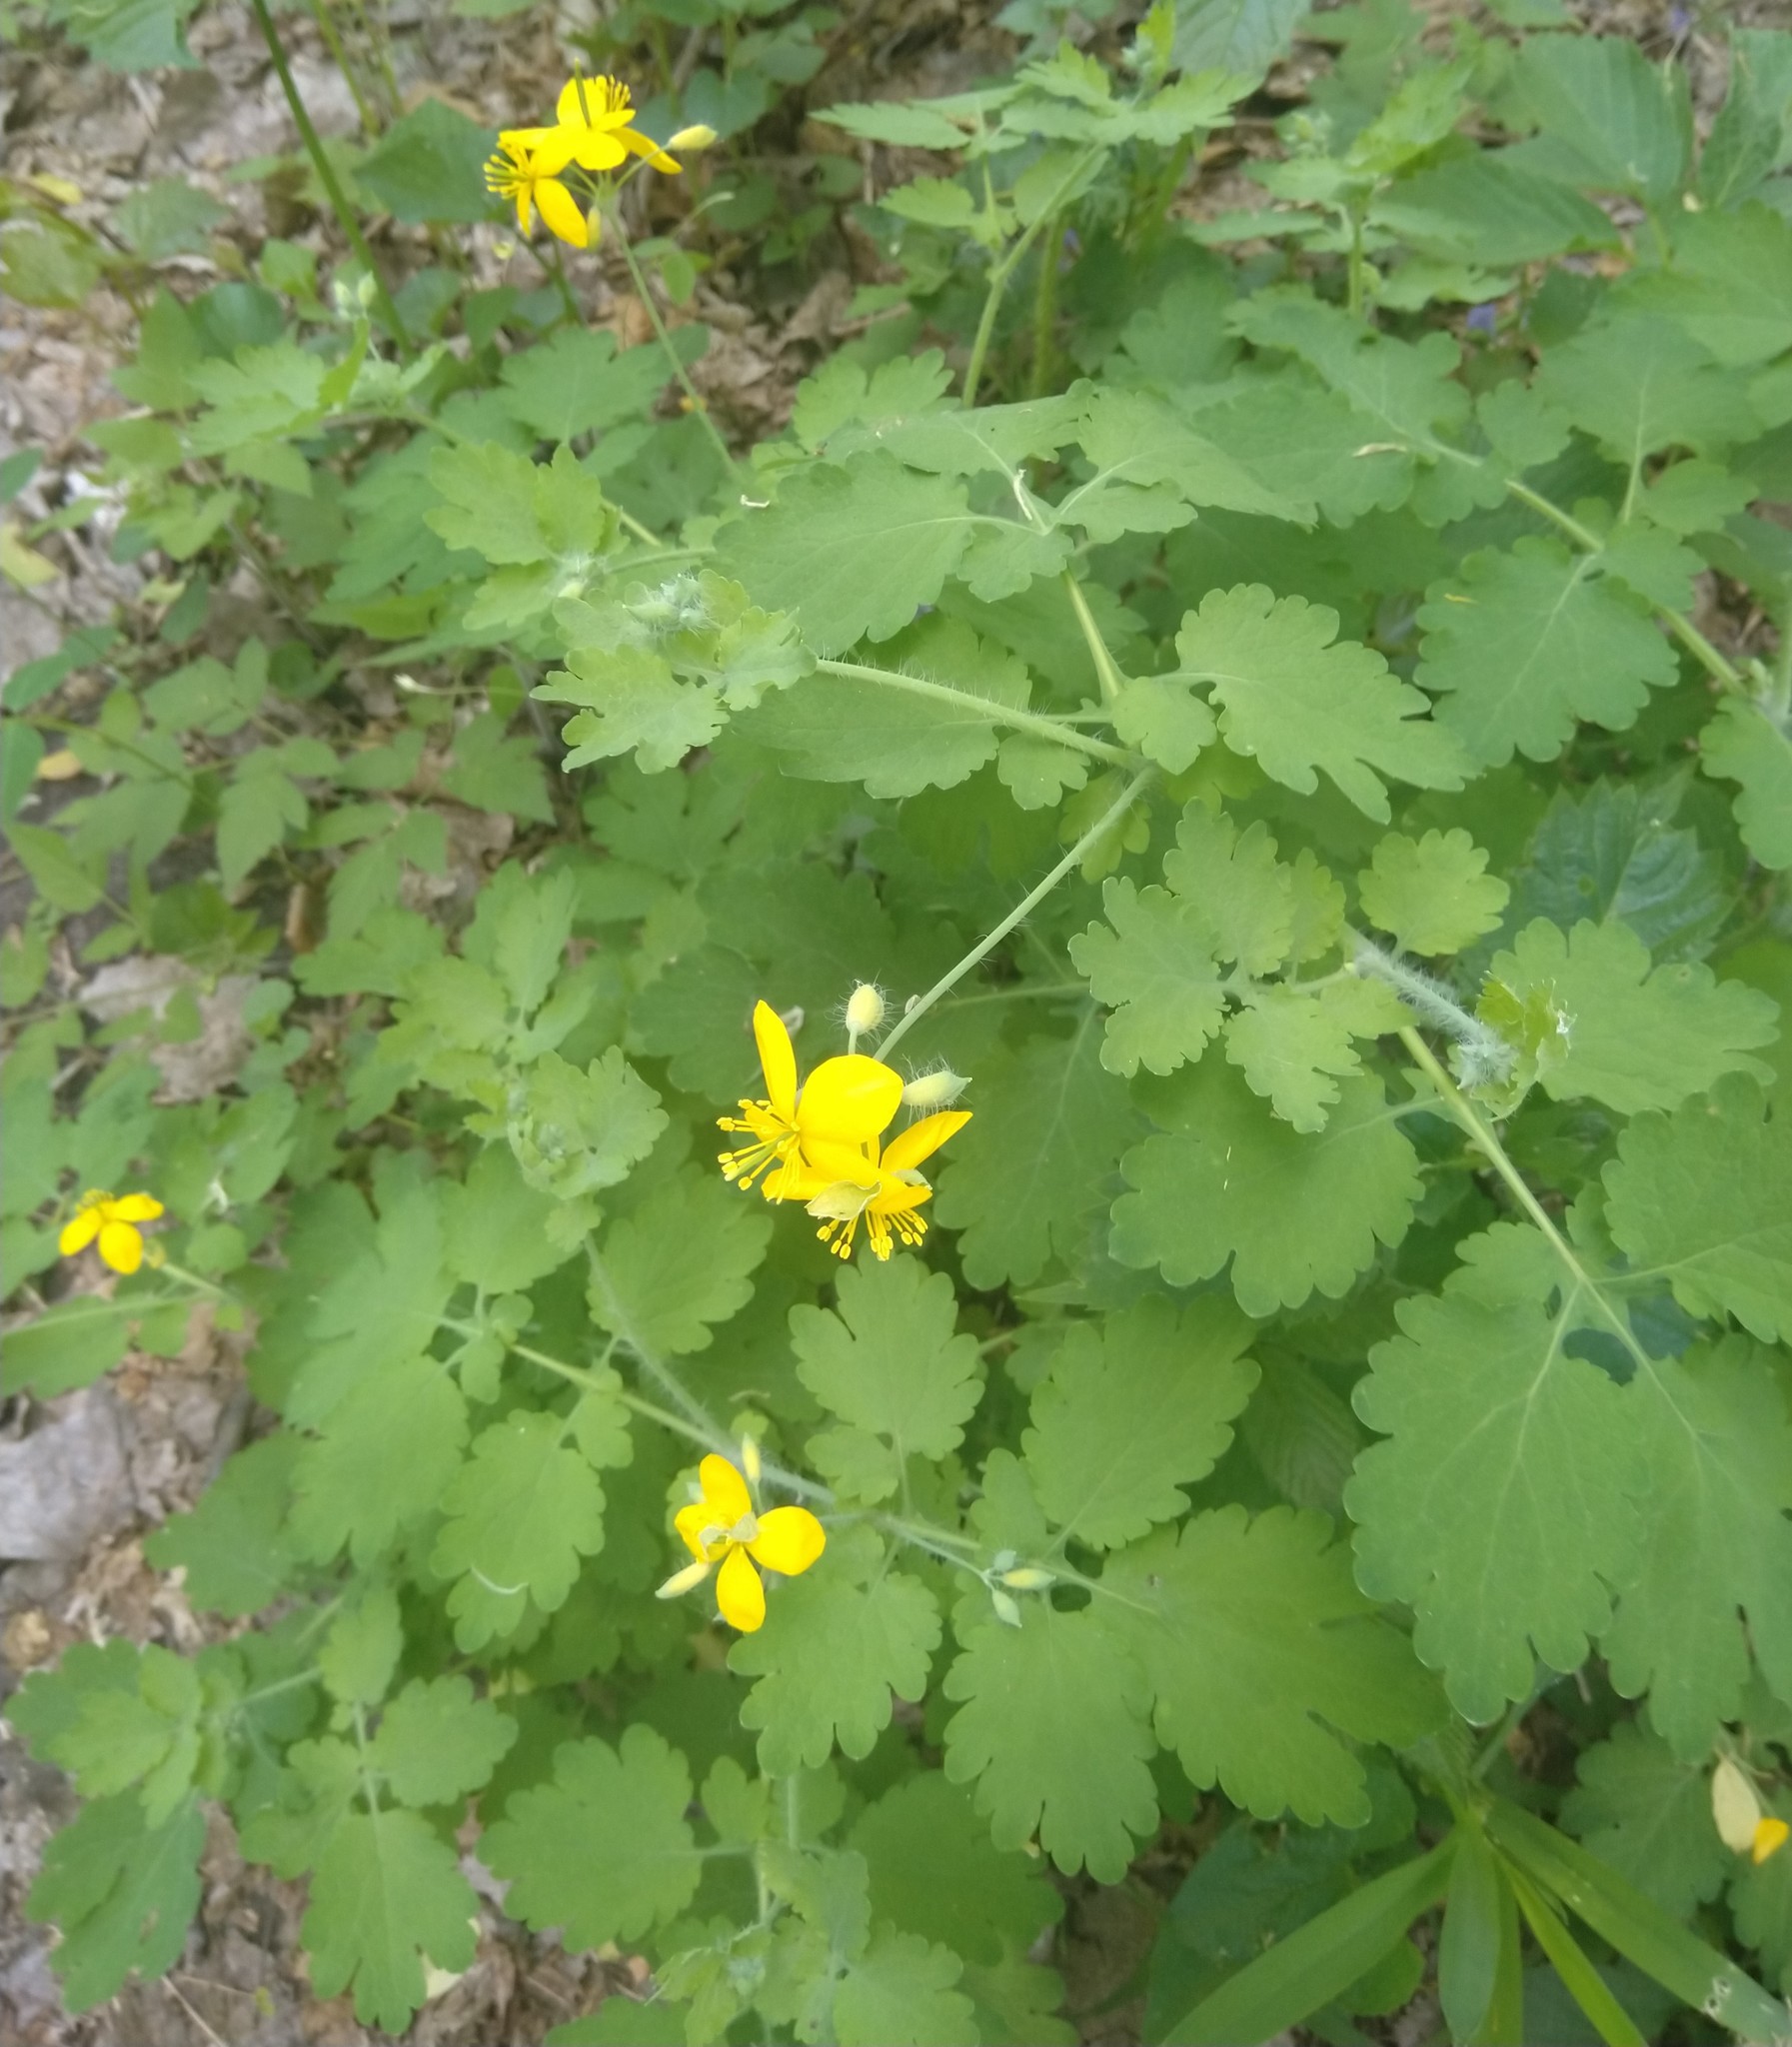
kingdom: Plantae
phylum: Tracheophyta
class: Magnoliopsida
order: Ranunculales
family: Papaveraceae
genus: Chelidonium
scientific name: Chelidonium majus
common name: Greater celandine
